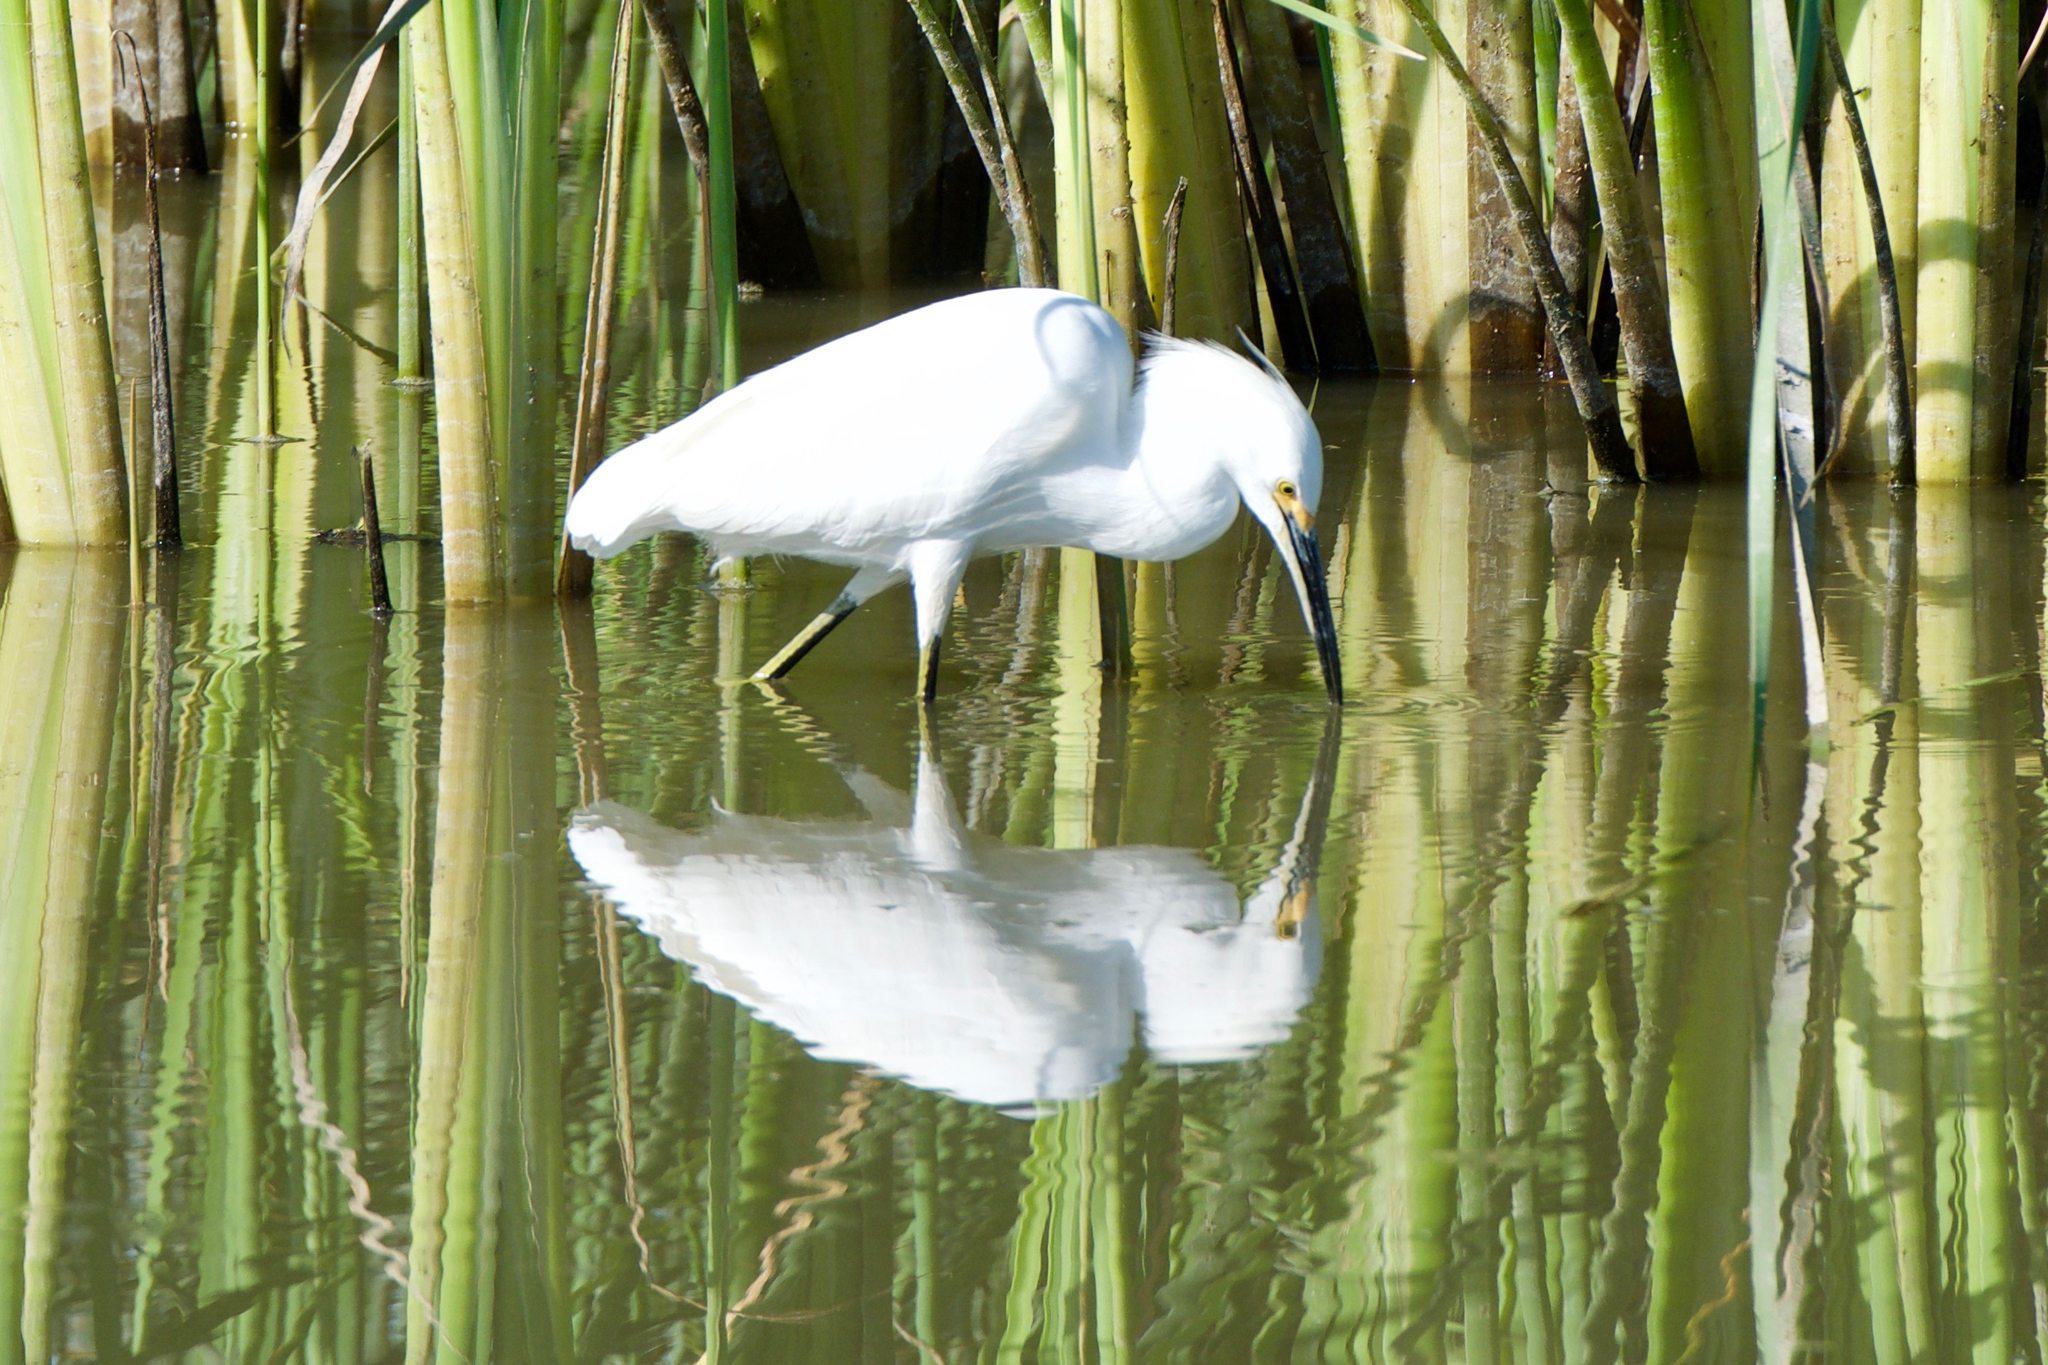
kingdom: Animalia
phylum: Chordata
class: Aves
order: Pelecaniformes
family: Ardeidae
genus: Egretta
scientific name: Egretta thula
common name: Snowy egret
